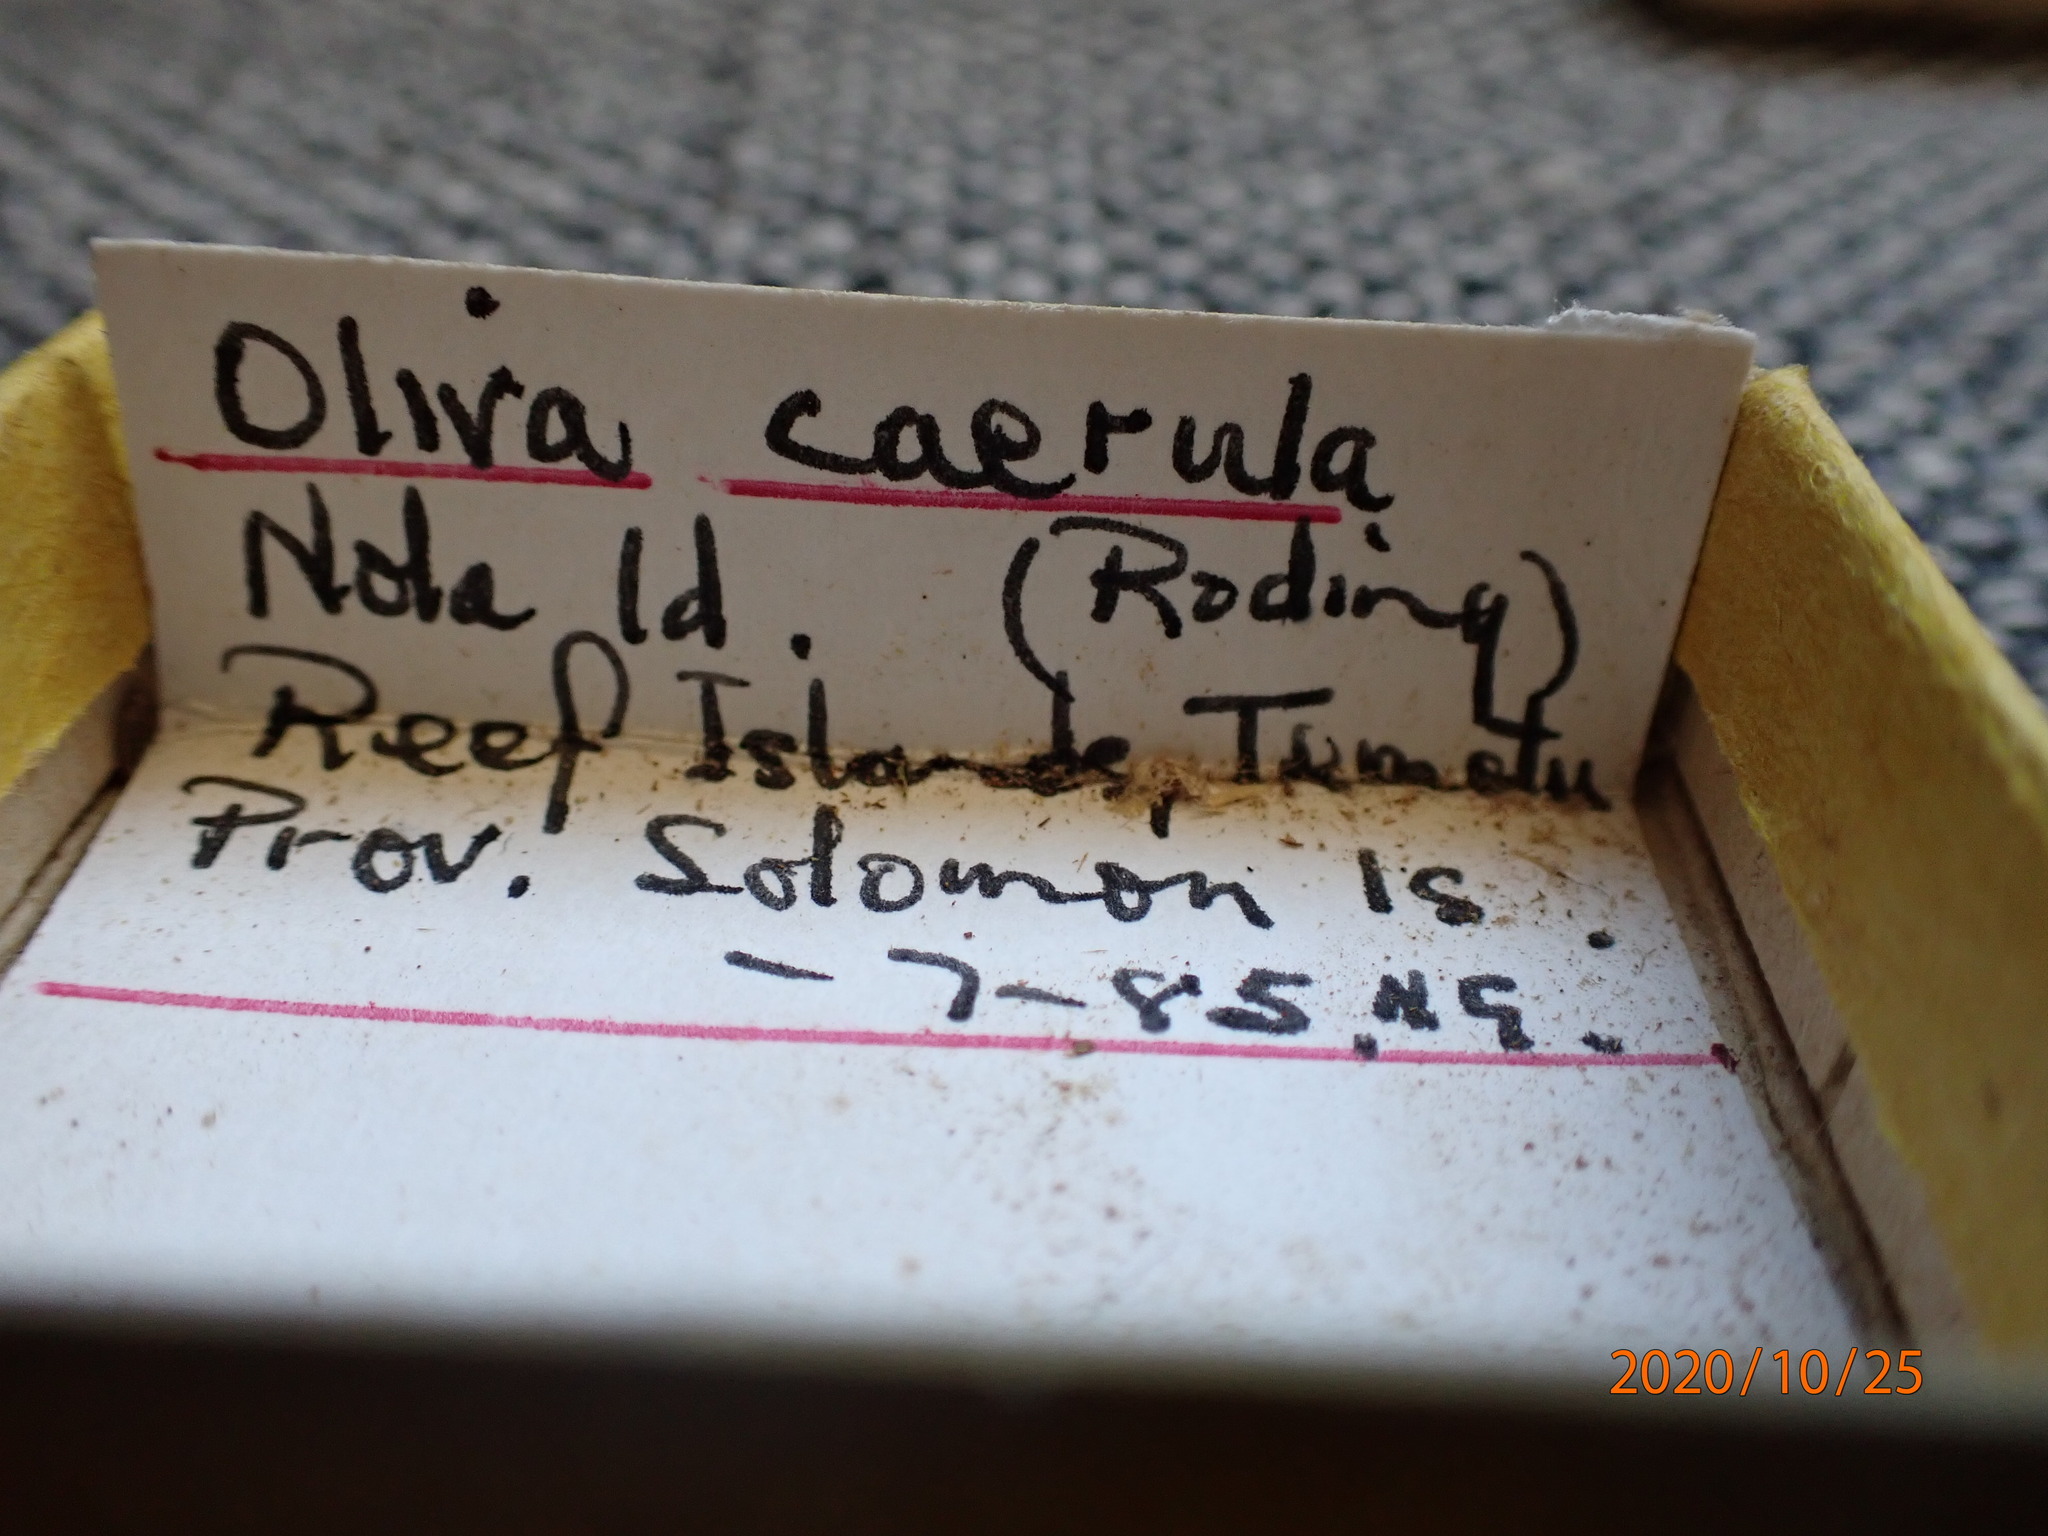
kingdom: Animalia
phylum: Mollusca
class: Gastropoda
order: Neogastropoda
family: Olividae
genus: Oliva
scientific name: Oliva caerulea
